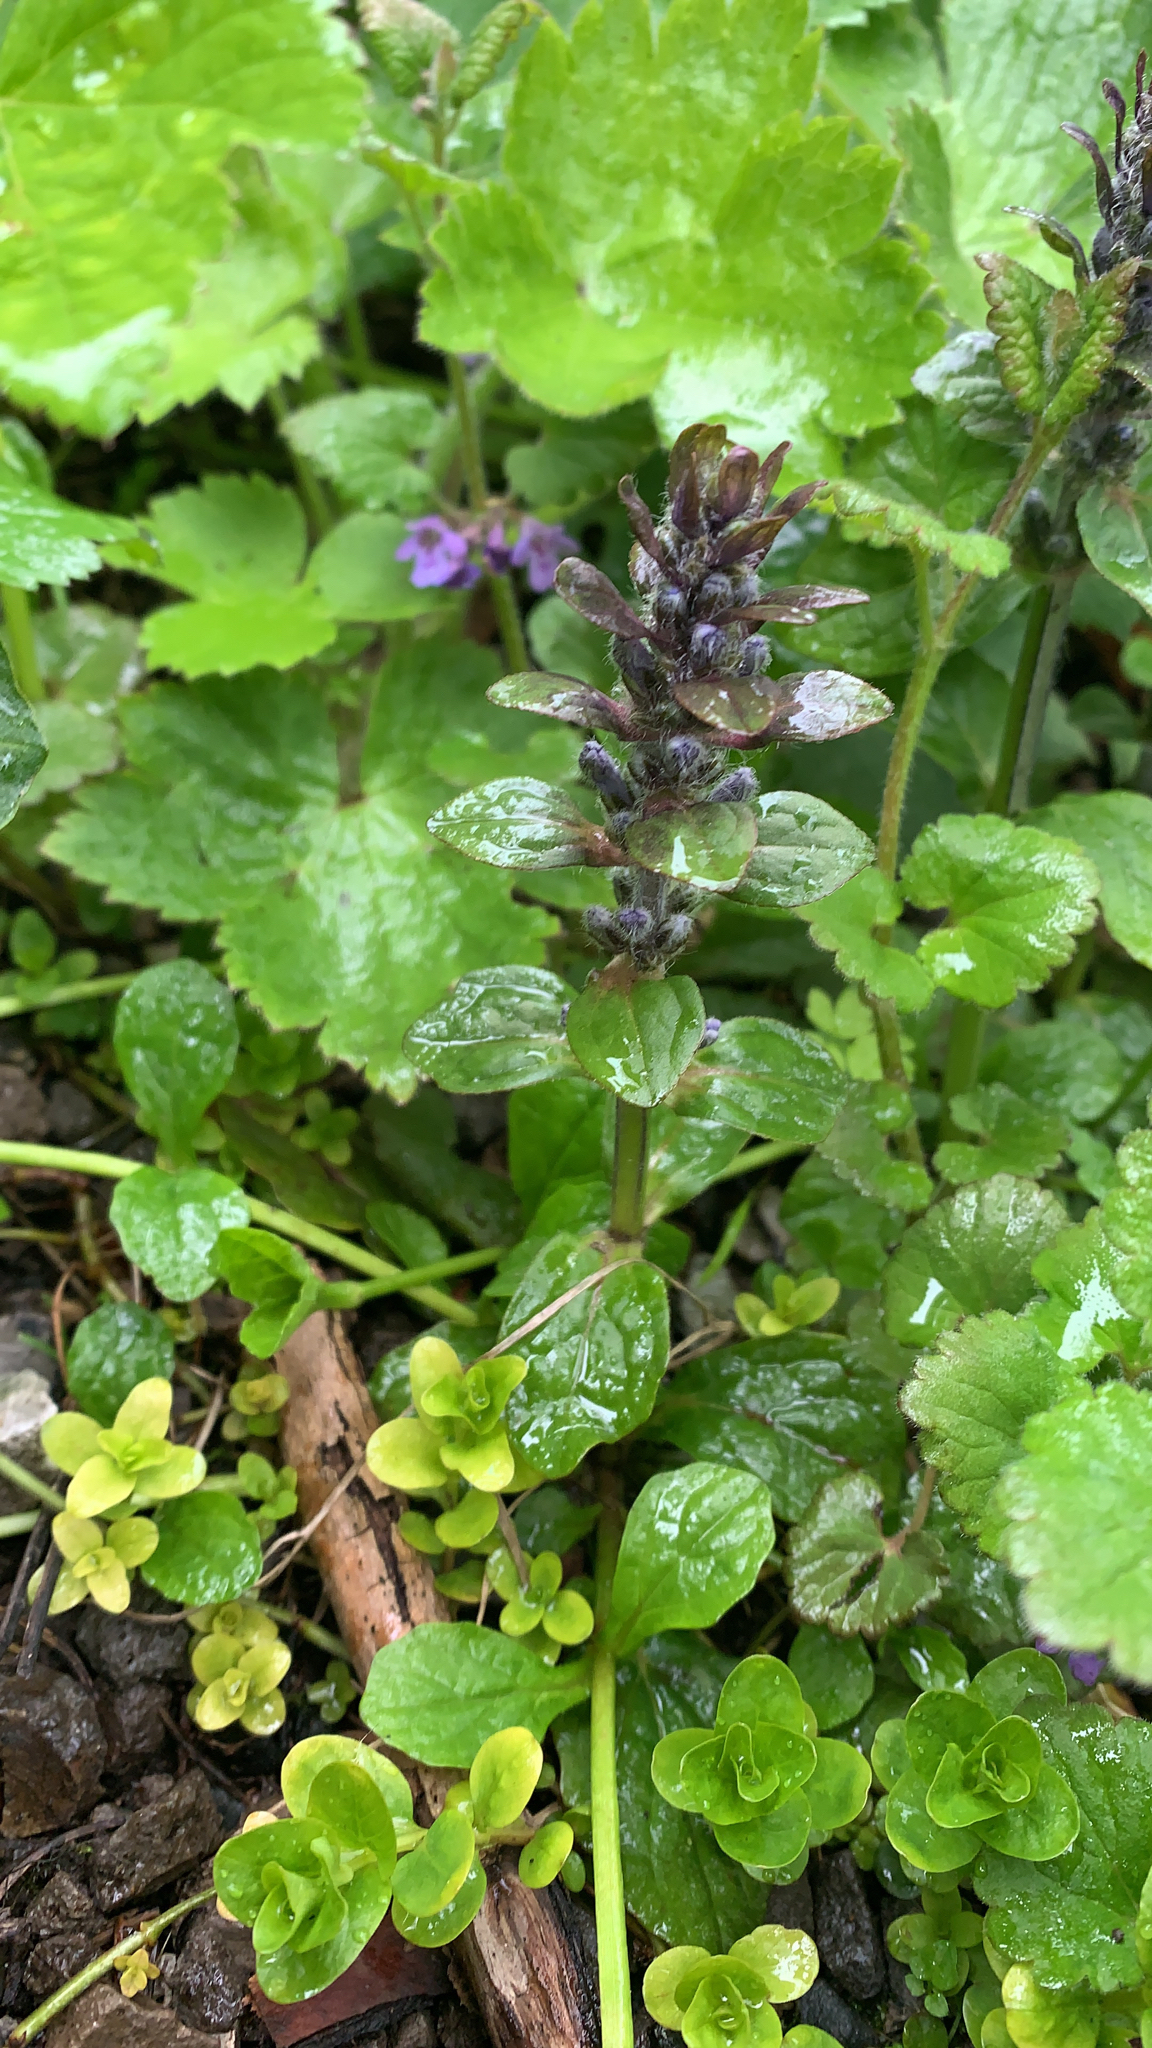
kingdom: Plantae
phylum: Tracheophyta
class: Magnoliopsida
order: Lamiales
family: Lamiaceae
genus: Ajuga
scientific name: Ajuga reptans
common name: Bugle
